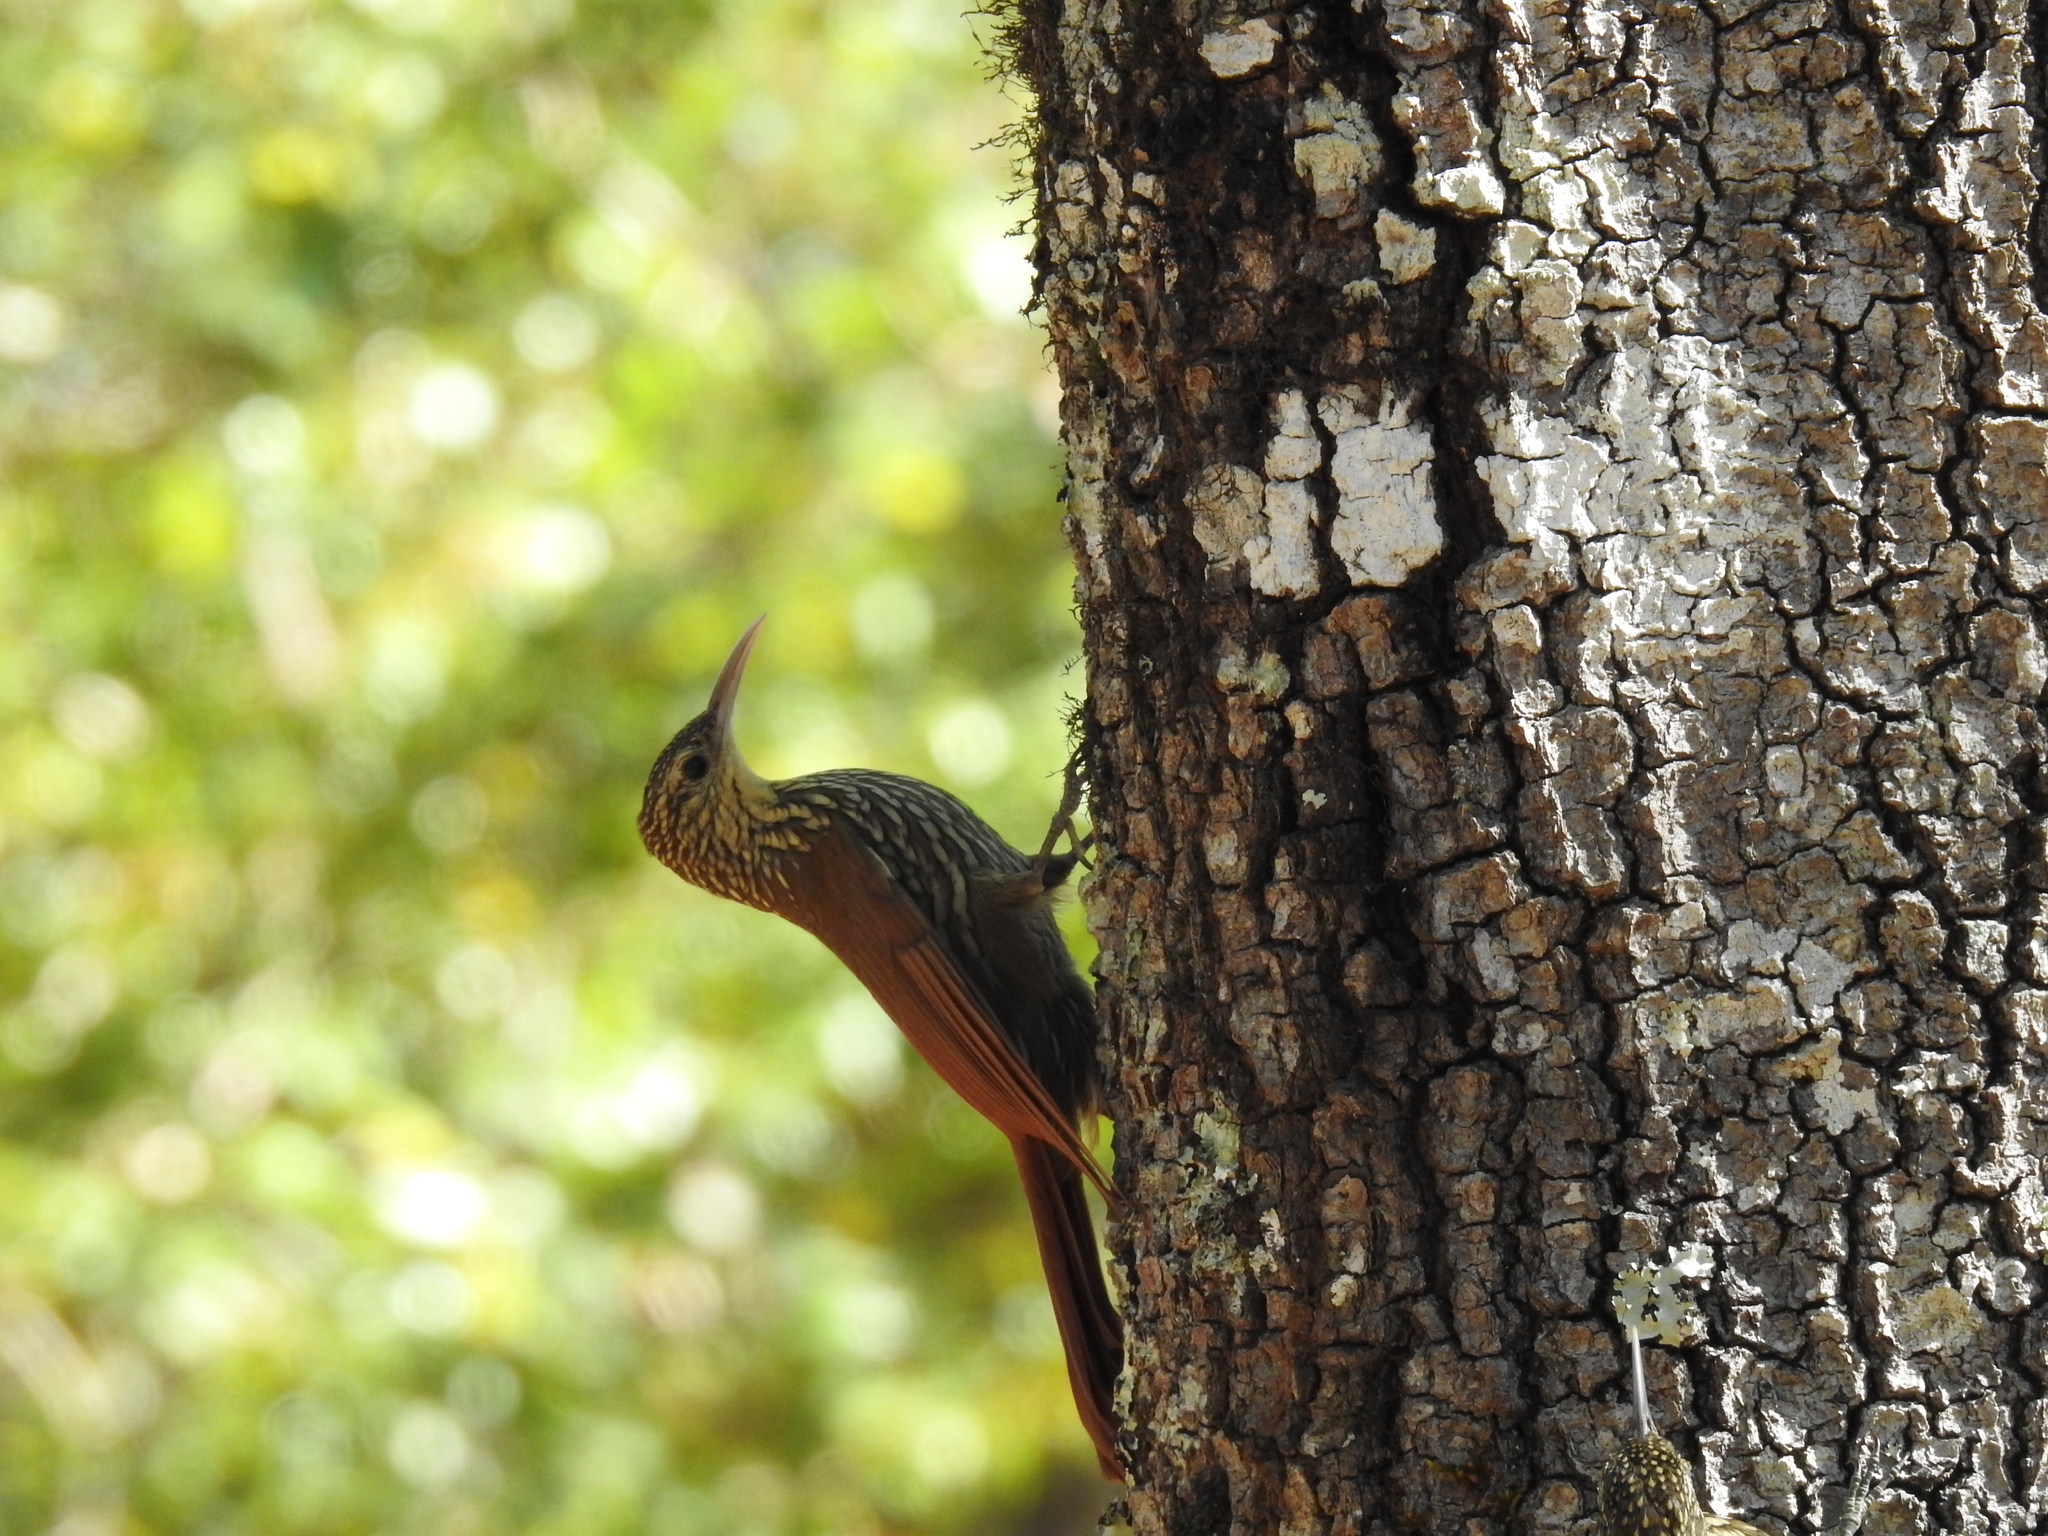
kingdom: Animalia
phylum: Chordata
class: Aves
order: Passeriformes
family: Furnariidae
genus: Lepidocolaptes
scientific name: Lepidocolaptes affinis
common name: Spot-crowned woodcreeper
